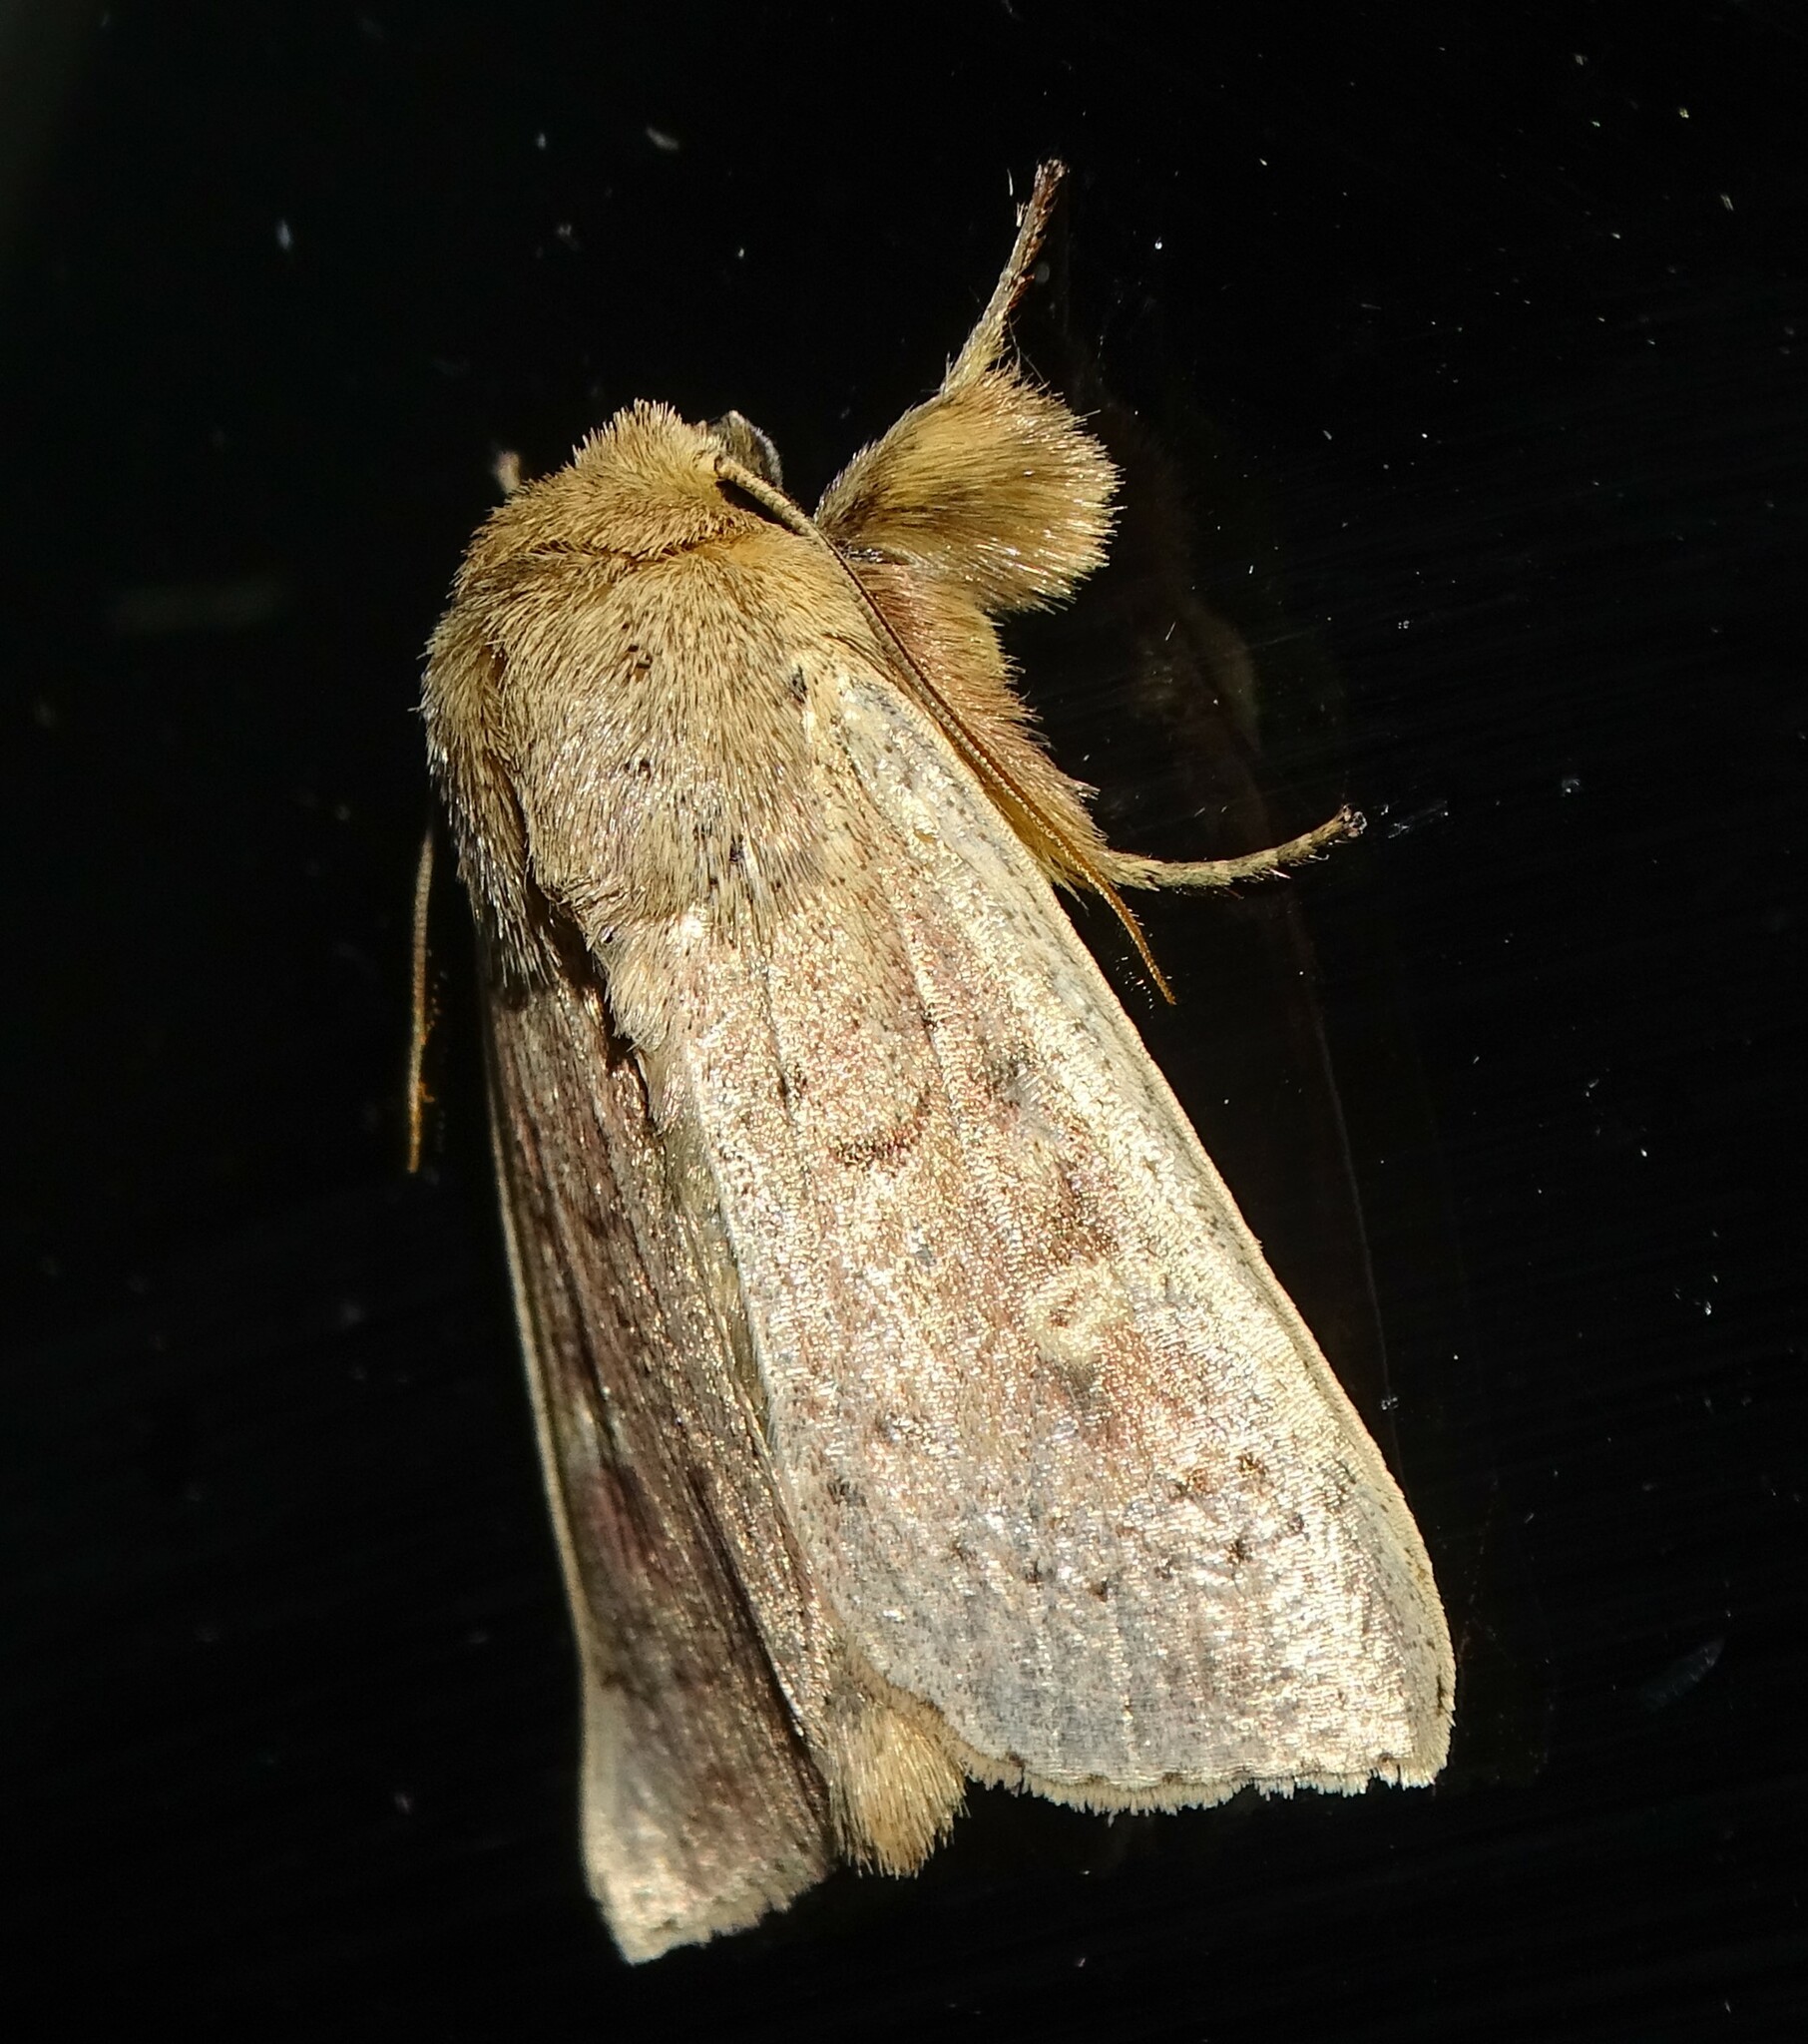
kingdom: Animalia
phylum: Arthropoda
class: Insecta
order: Lepidoptera
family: Noctuidae
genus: Leucania
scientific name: Leucania pseudargyria
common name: False wainscot
